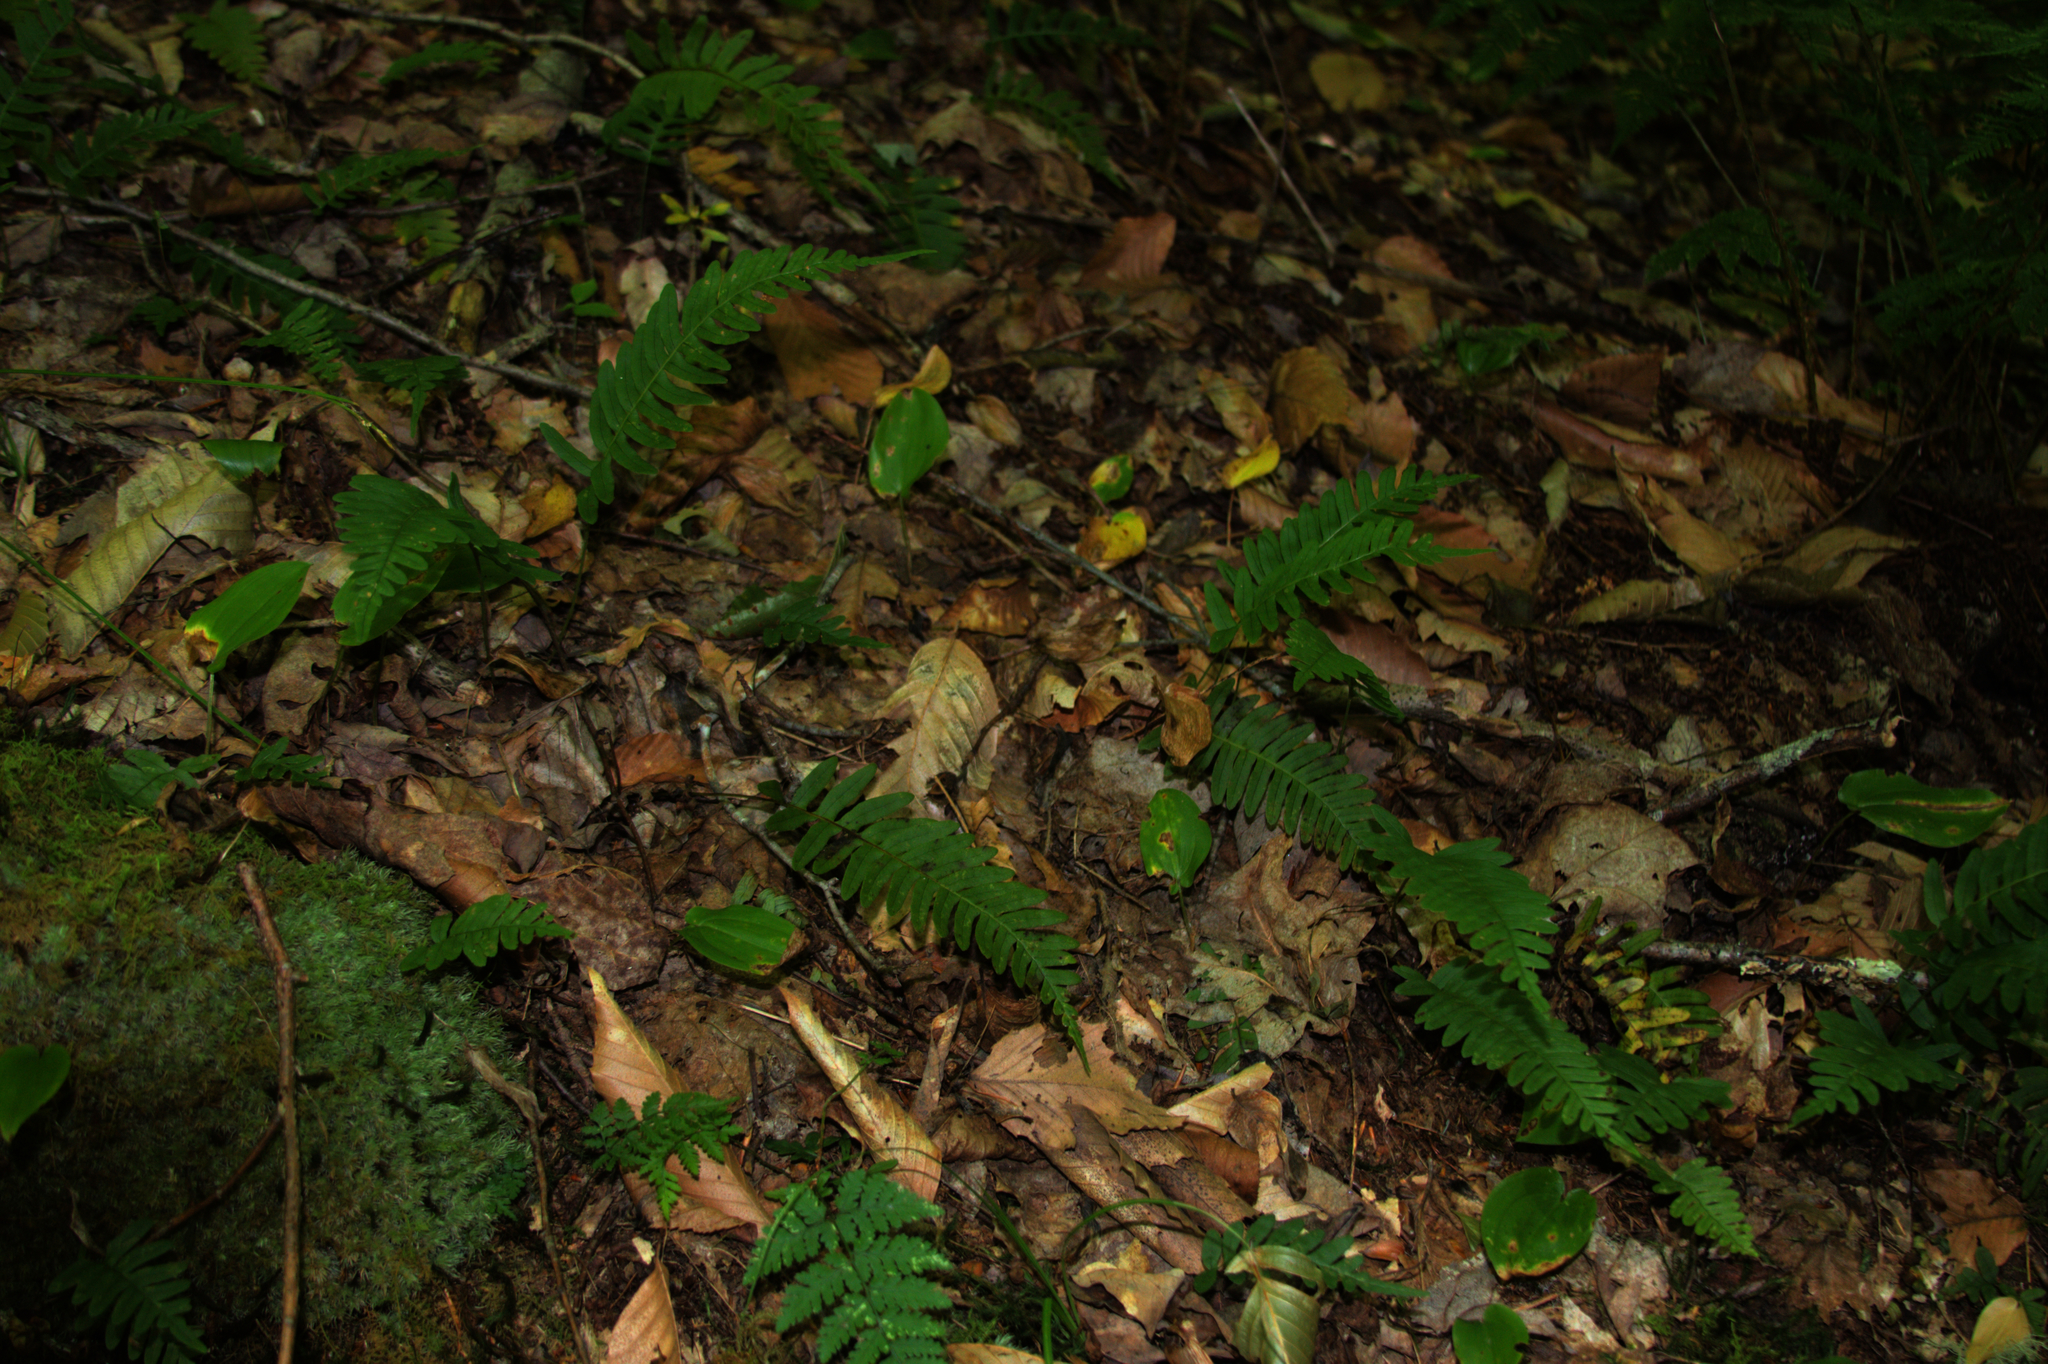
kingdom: Plantae
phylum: Tracheophyta
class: Liliopsida
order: Asparagales
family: Asparagaceae
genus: Maianthemum
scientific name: Maianthemum canadense
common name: False lily-of-the-valley
